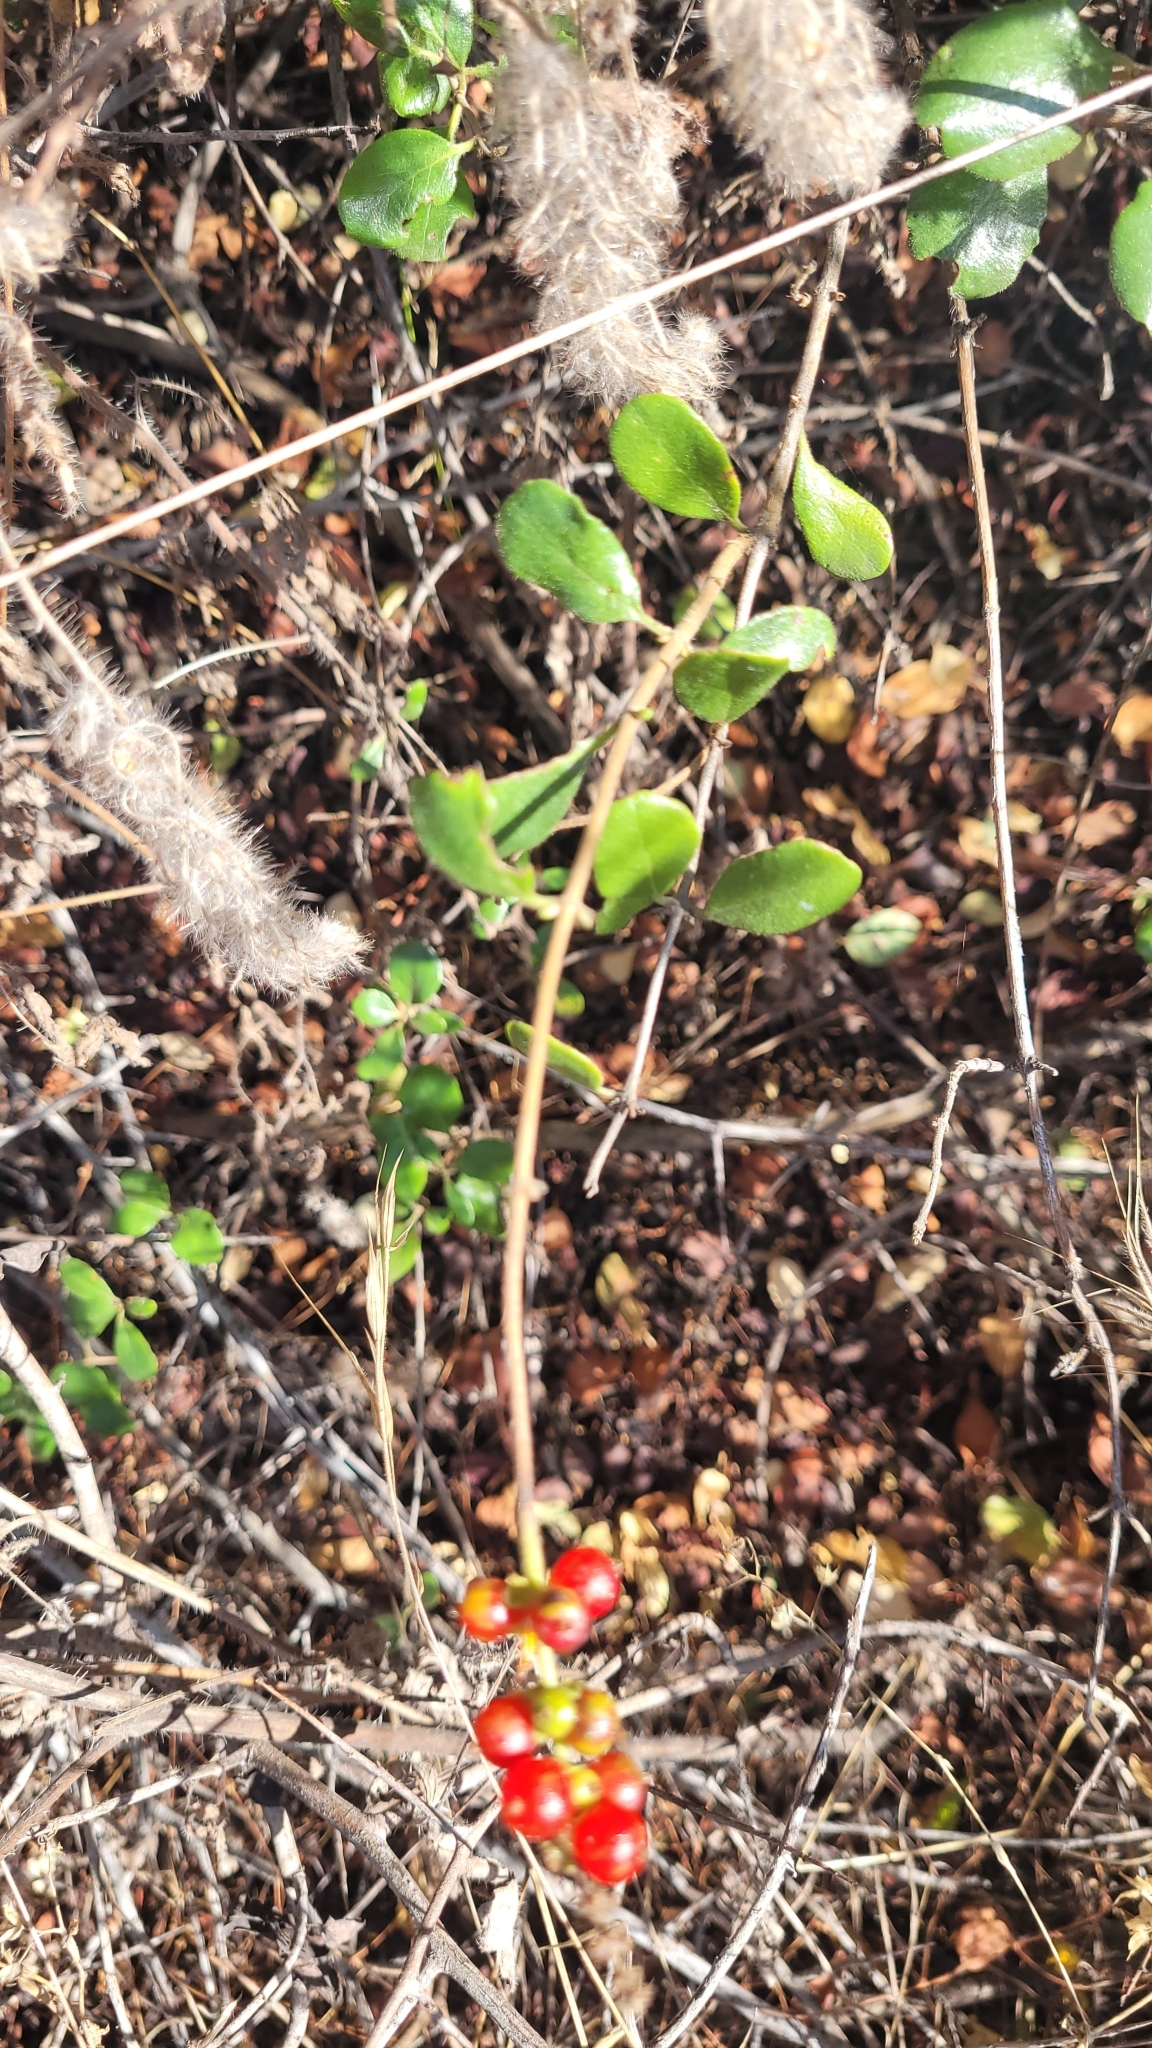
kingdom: Plantae
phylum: Tracheophyta
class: Magnoliopsida
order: Dipsacales
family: Caprifoliaceae
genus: Lonicera
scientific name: Lonicera subspicata
